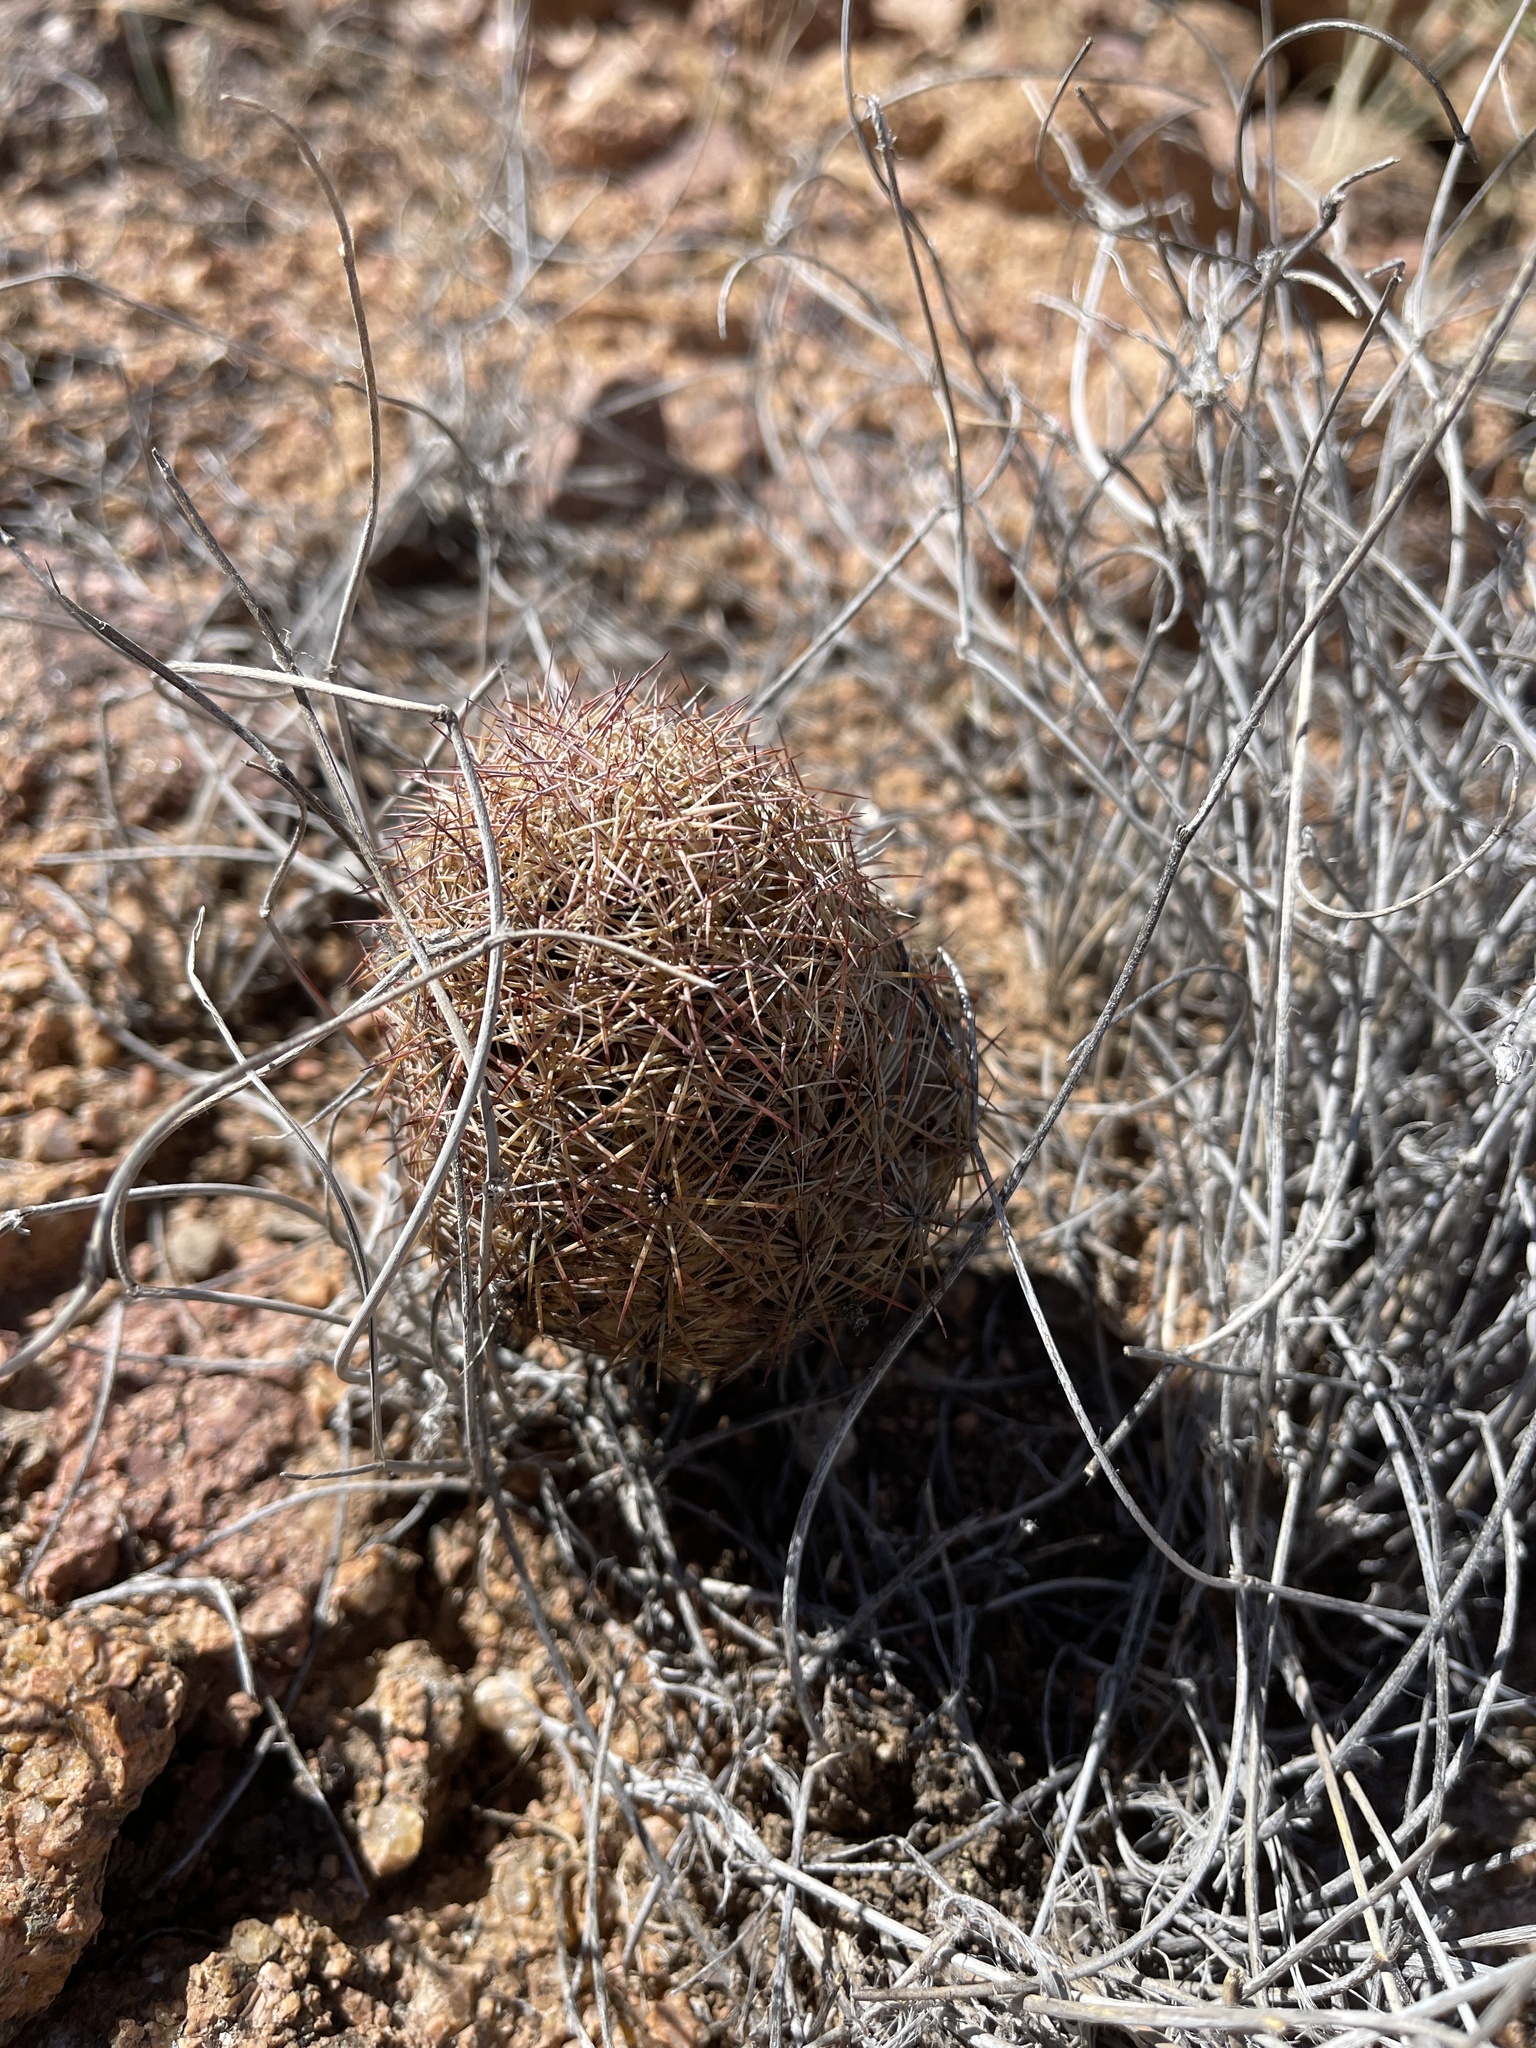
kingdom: Plantae
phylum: Tracheophyta
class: Magnoliopsida
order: Caryophyllales
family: Cactaceae
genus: Sclerocactus
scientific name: Sclerocactus intertextus
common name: White fish-hook cactus
